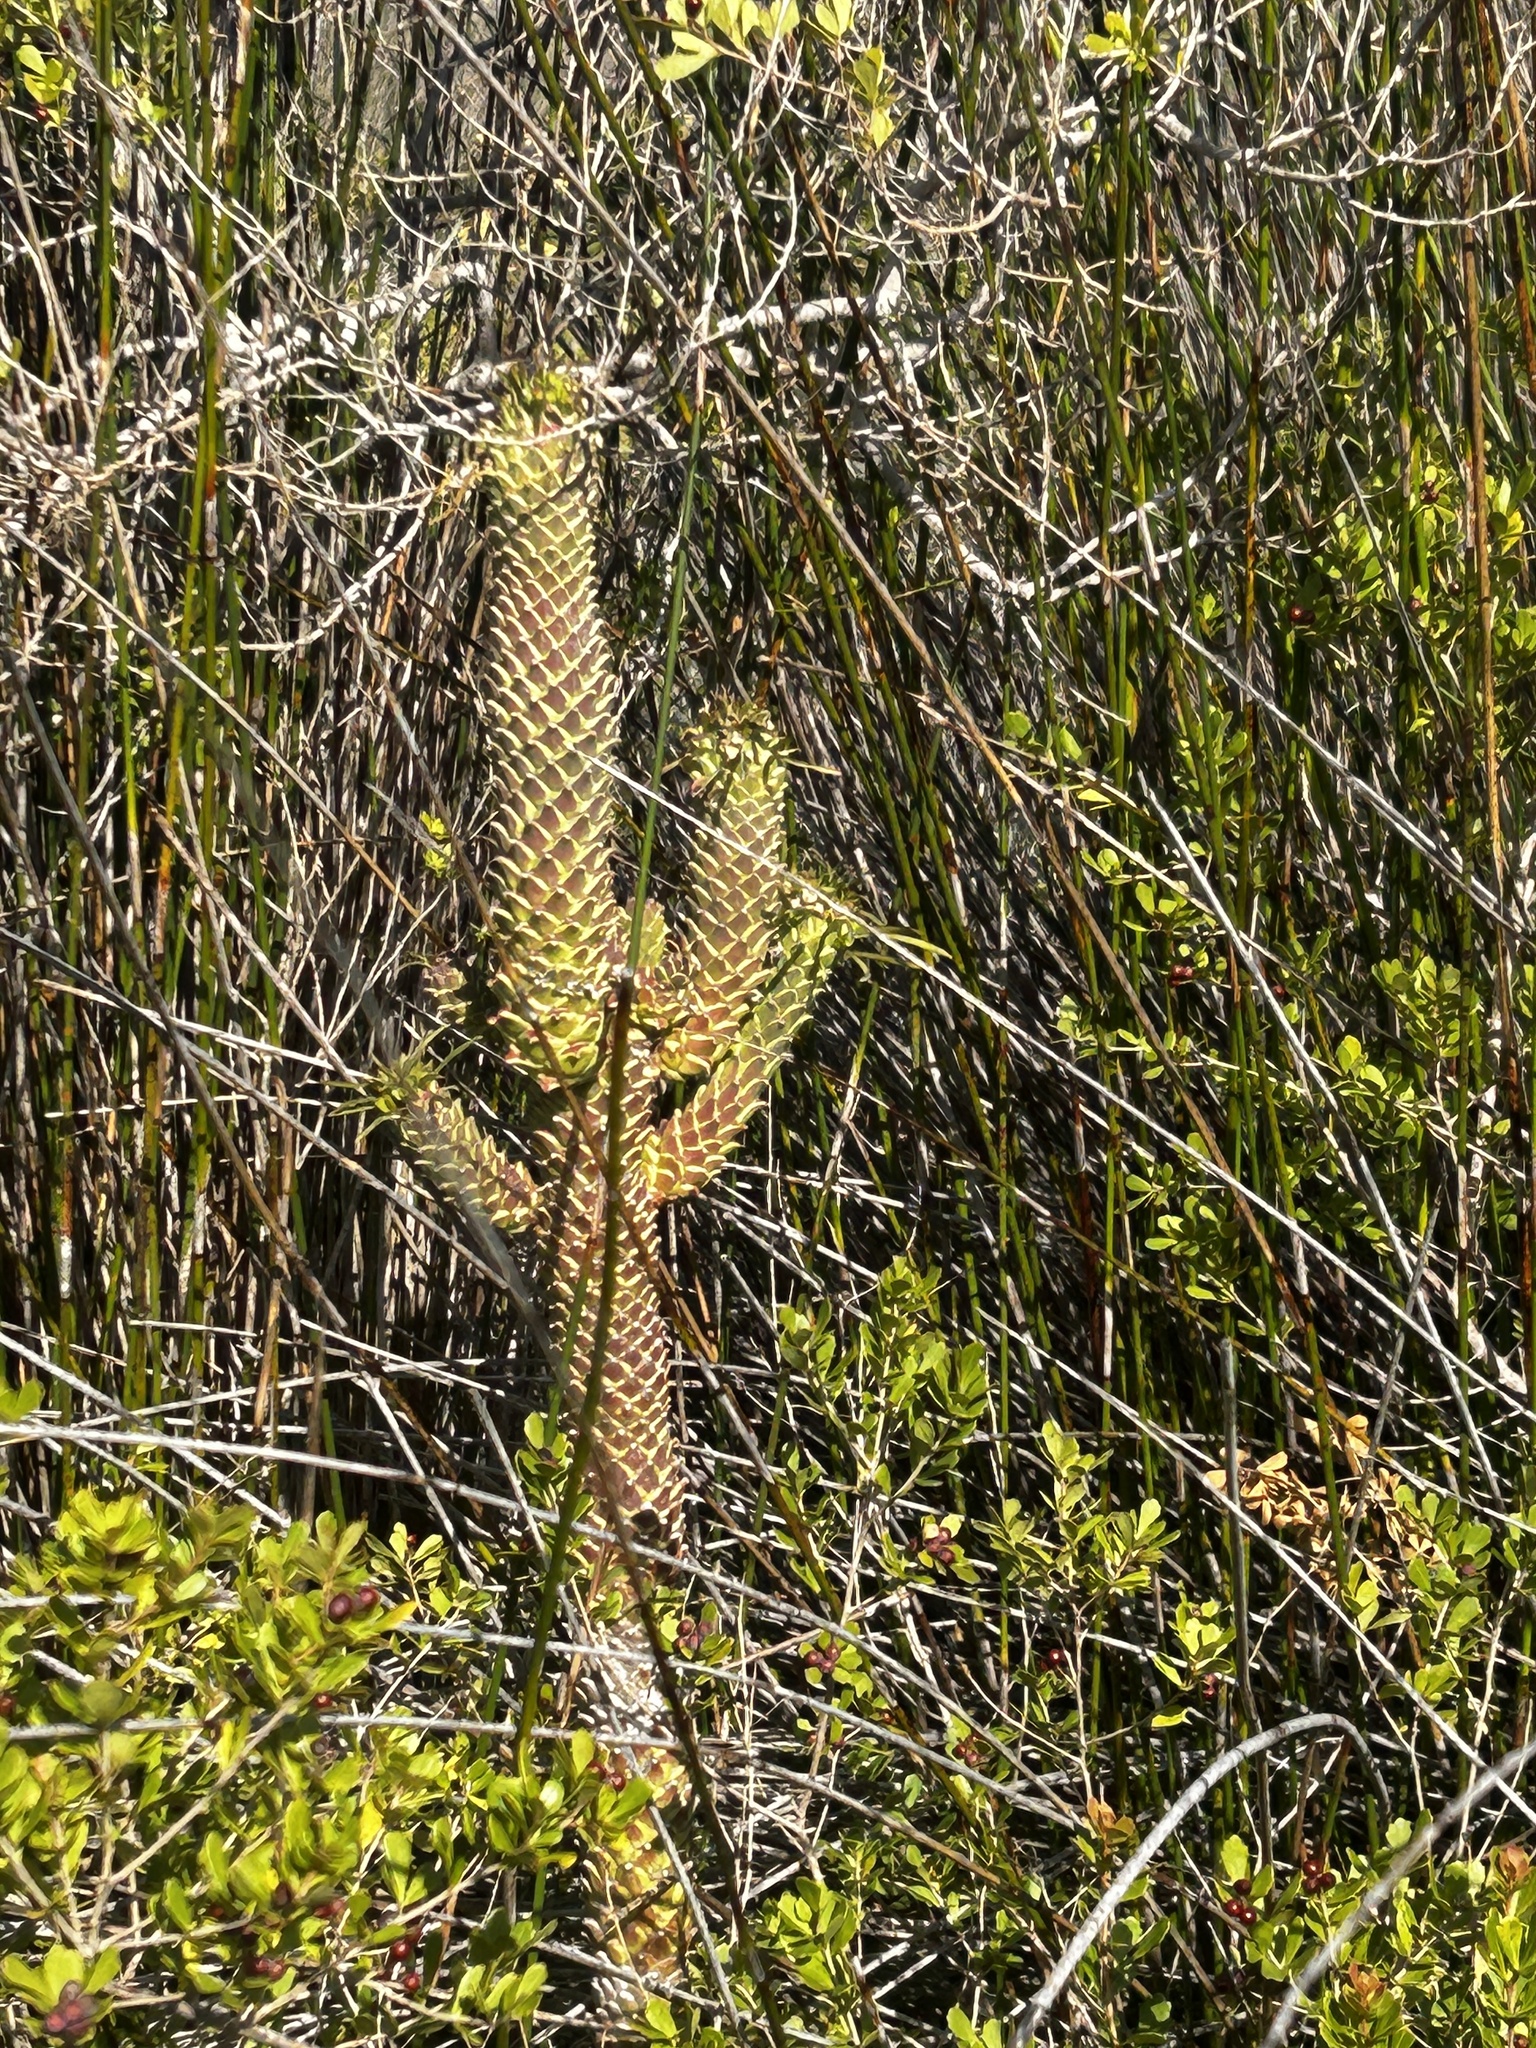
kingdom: Plantae
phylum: Tracheophyta
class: Magnoliopsida
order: Malpighiales
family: Euphorbiaceae
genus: Euphorbia
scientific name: Euphorbia clandestina
